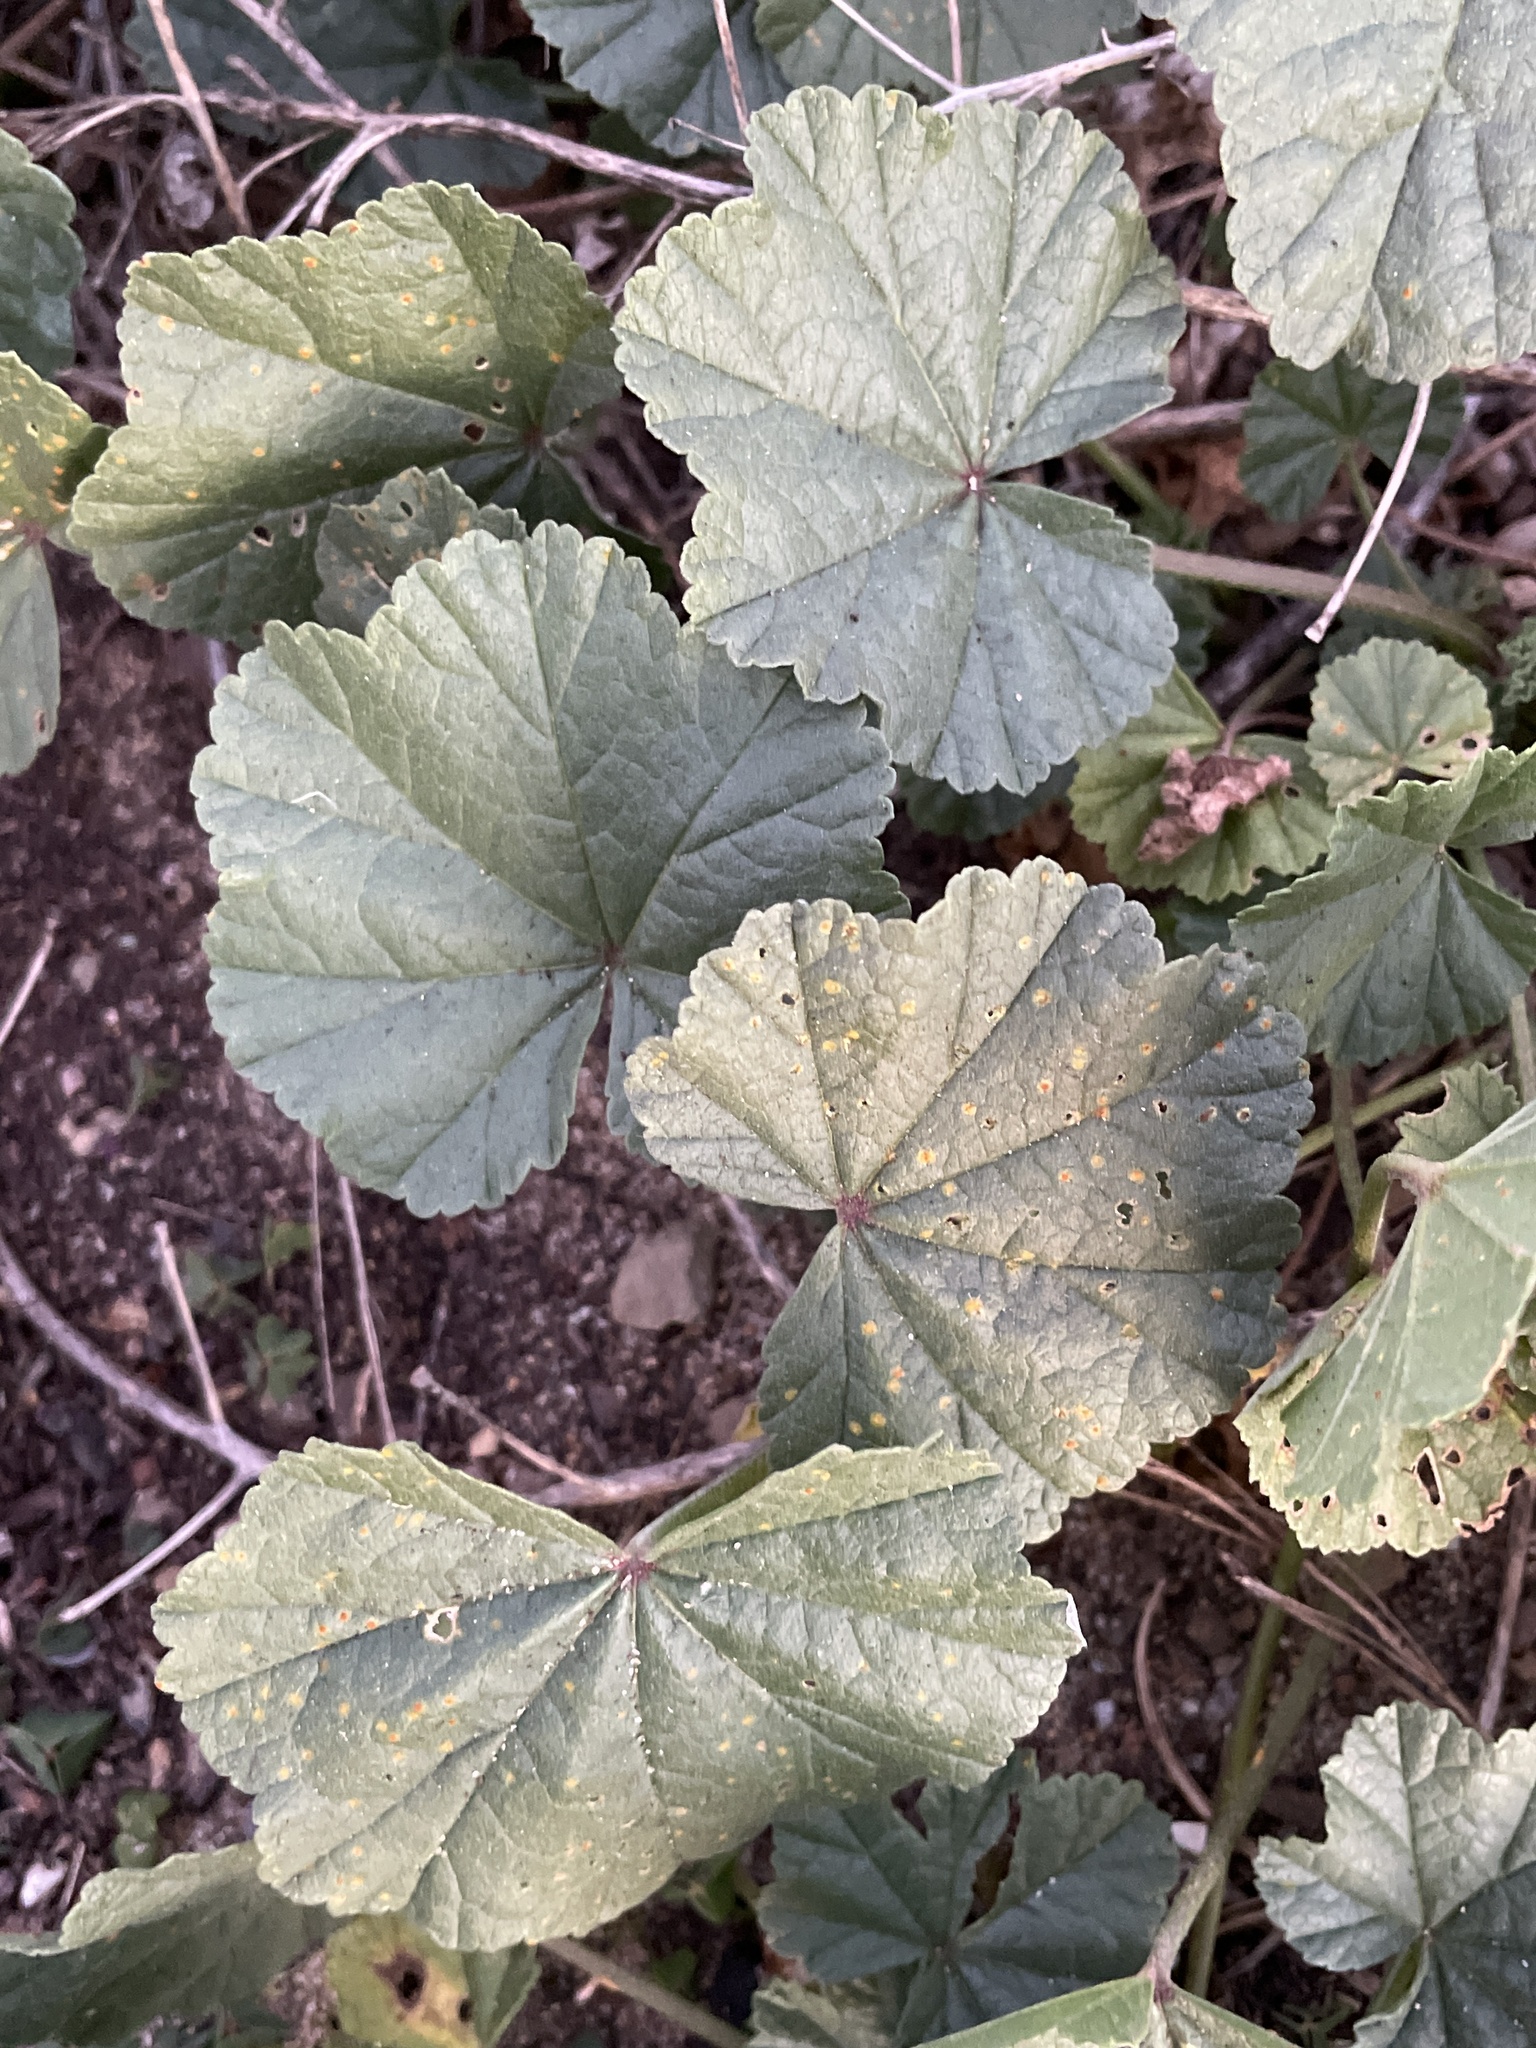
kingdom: Plantae
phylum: Tracheophyta
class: Magnoliopsida
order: Malvales
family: Malvaceae
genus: Malva
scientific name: Malva
